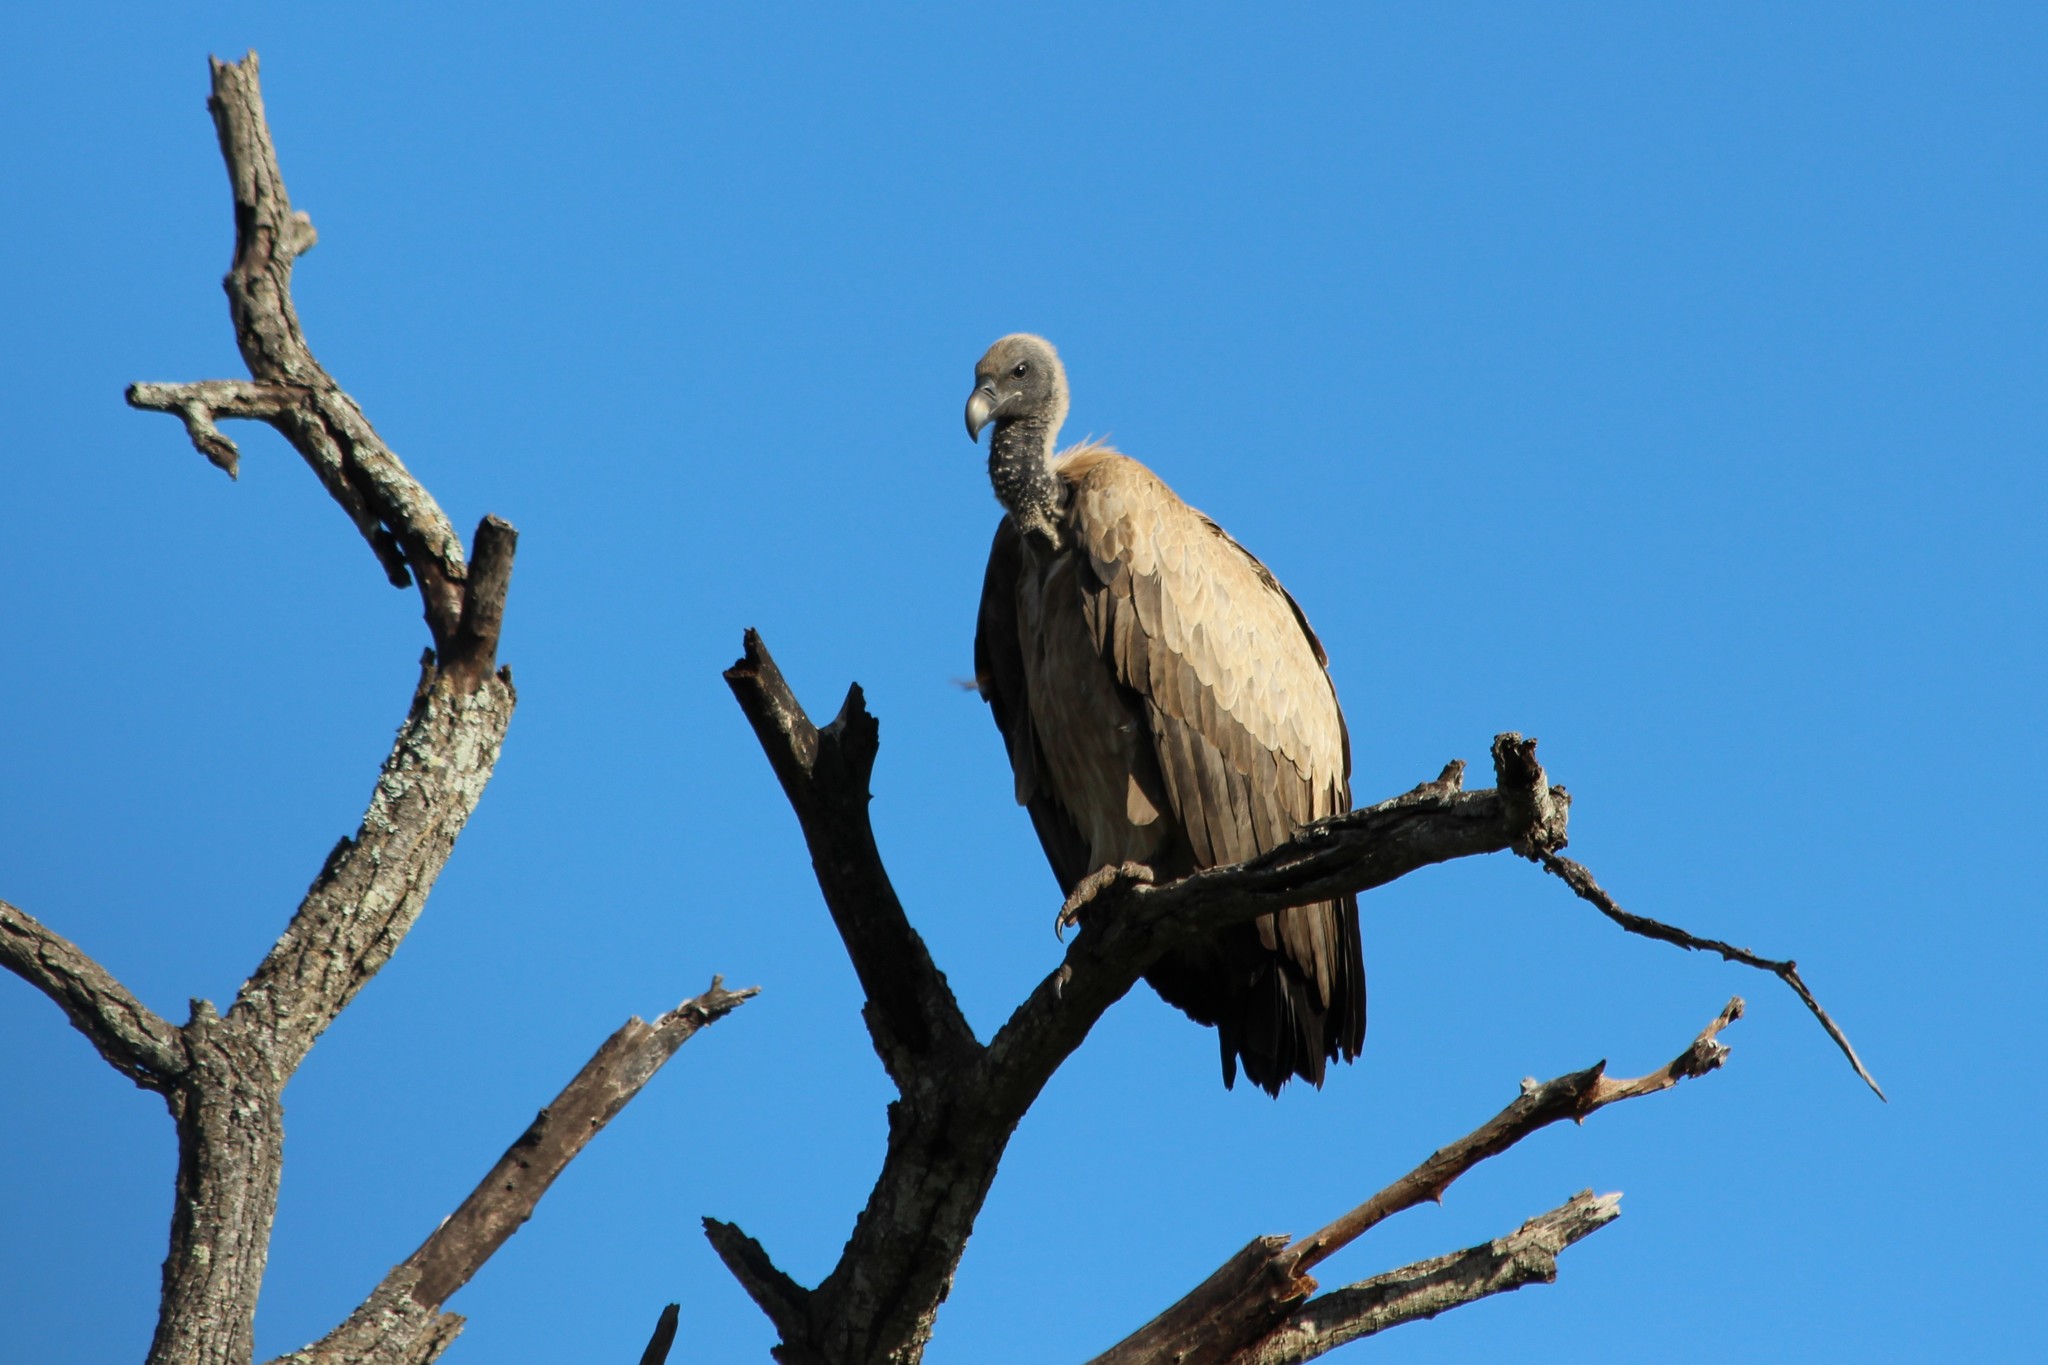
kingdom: Animalia
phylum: Chordata
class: Aves
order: Accipitriformes
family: Accipitridae
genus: Gyps
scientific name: Gyps africanus
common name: White-backed vulture
